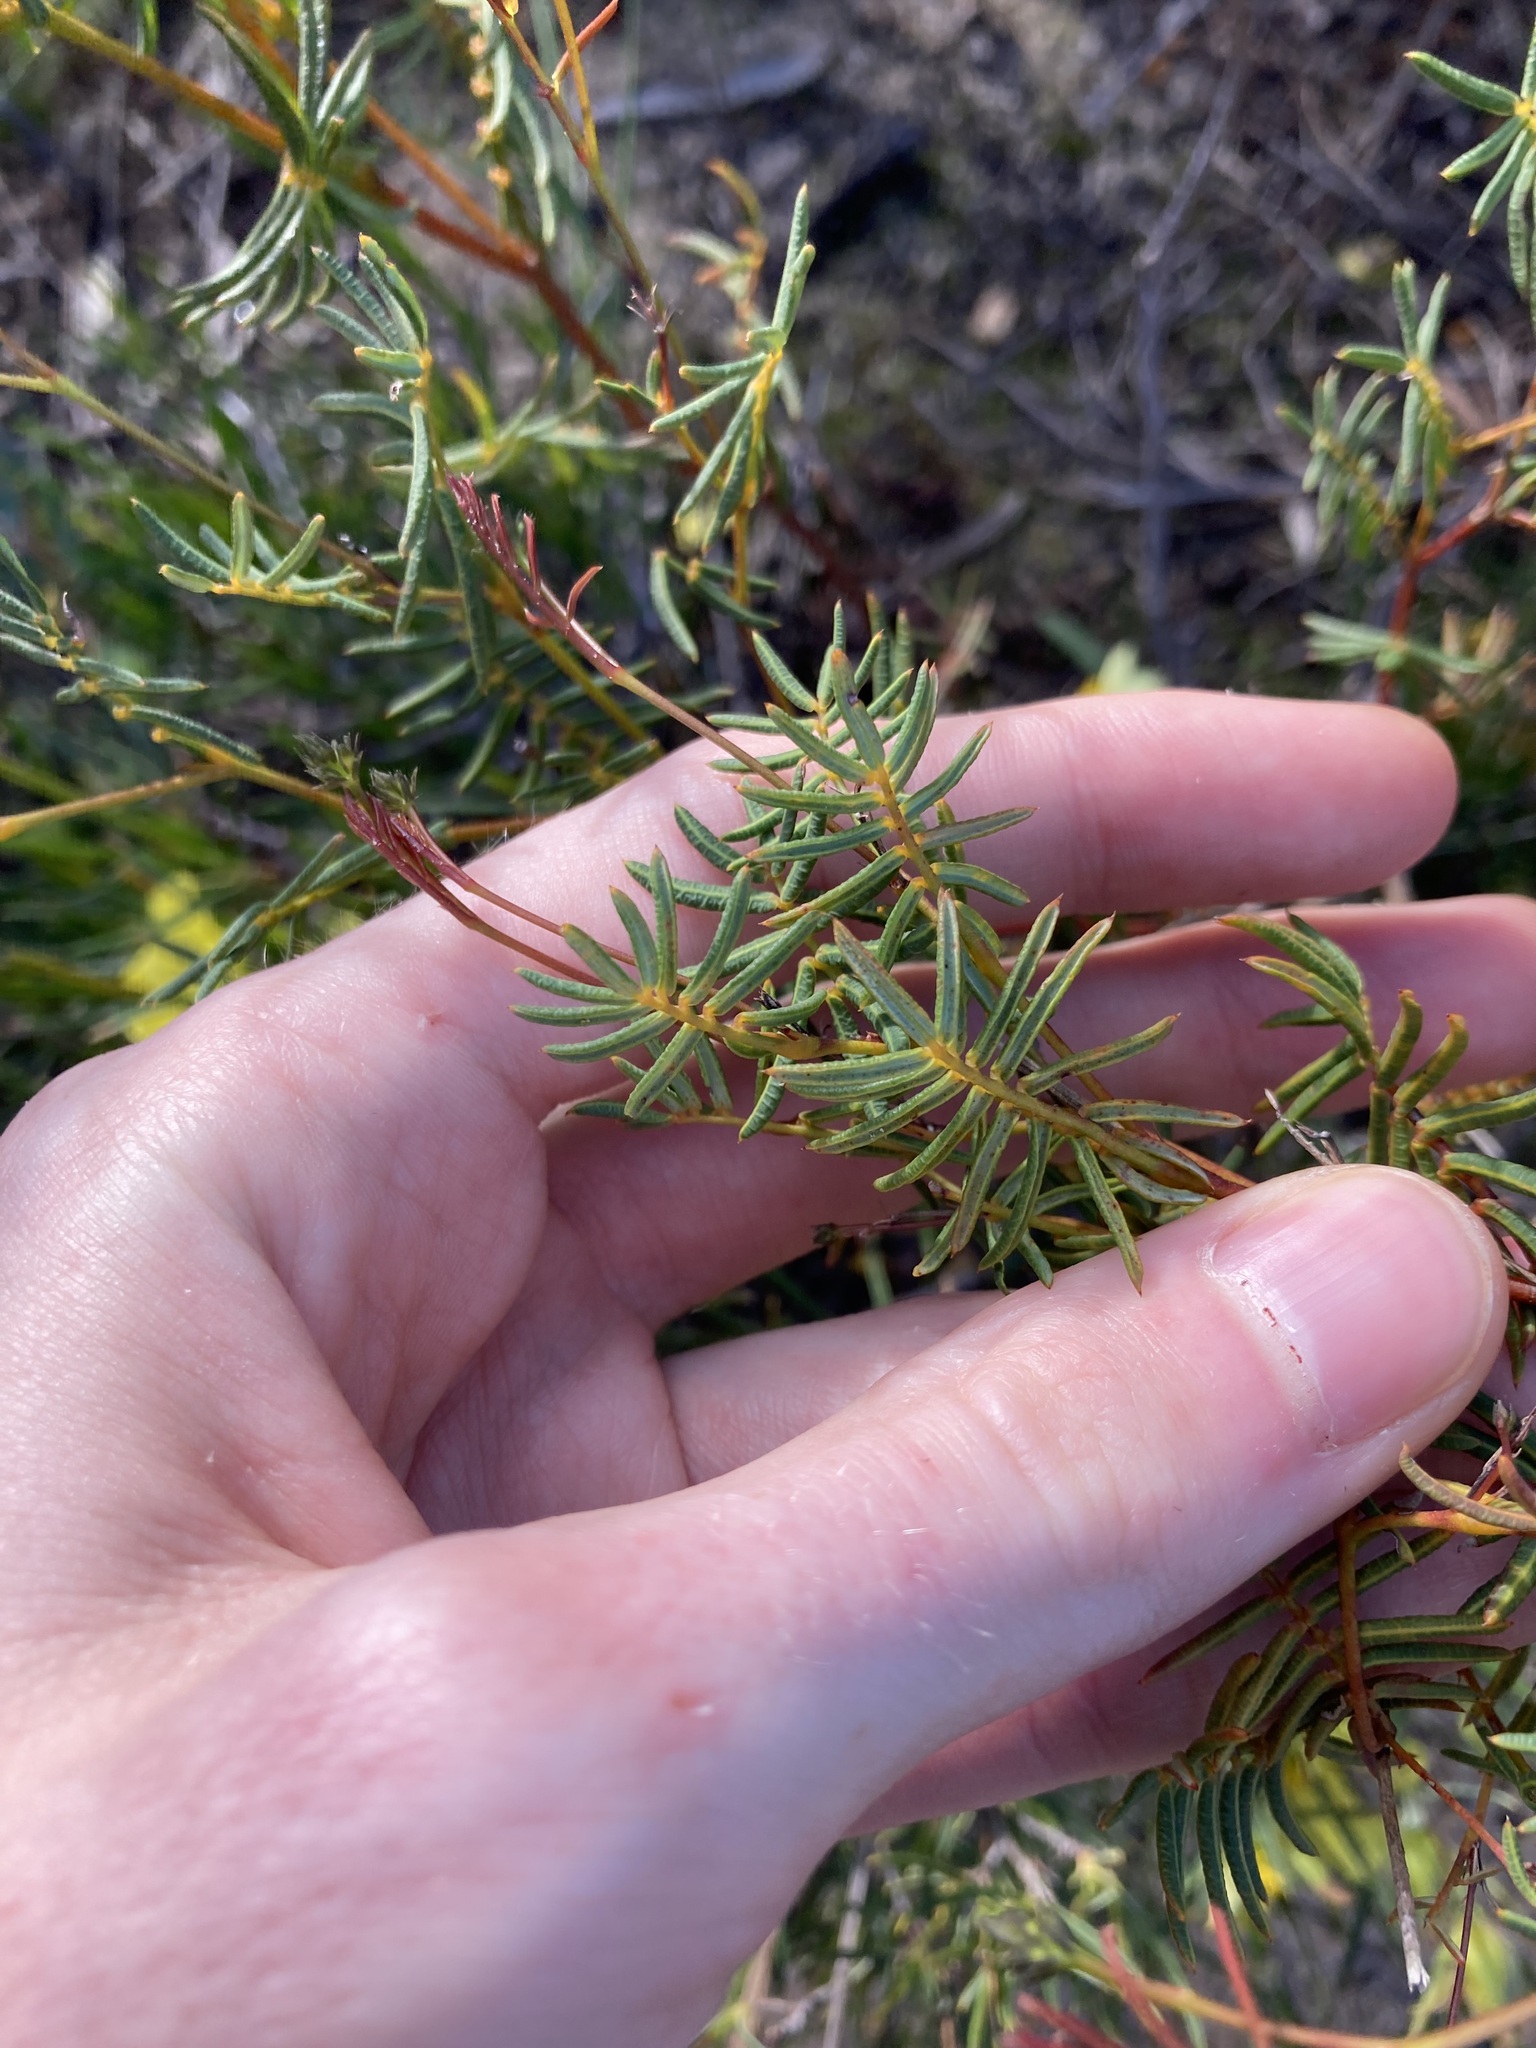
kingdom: Plantae
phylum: Tracheophyta
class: Magnoliopsida
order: Fabales
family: Fabaceae
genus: Gompholobium
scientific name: Gompholobium knightianum
